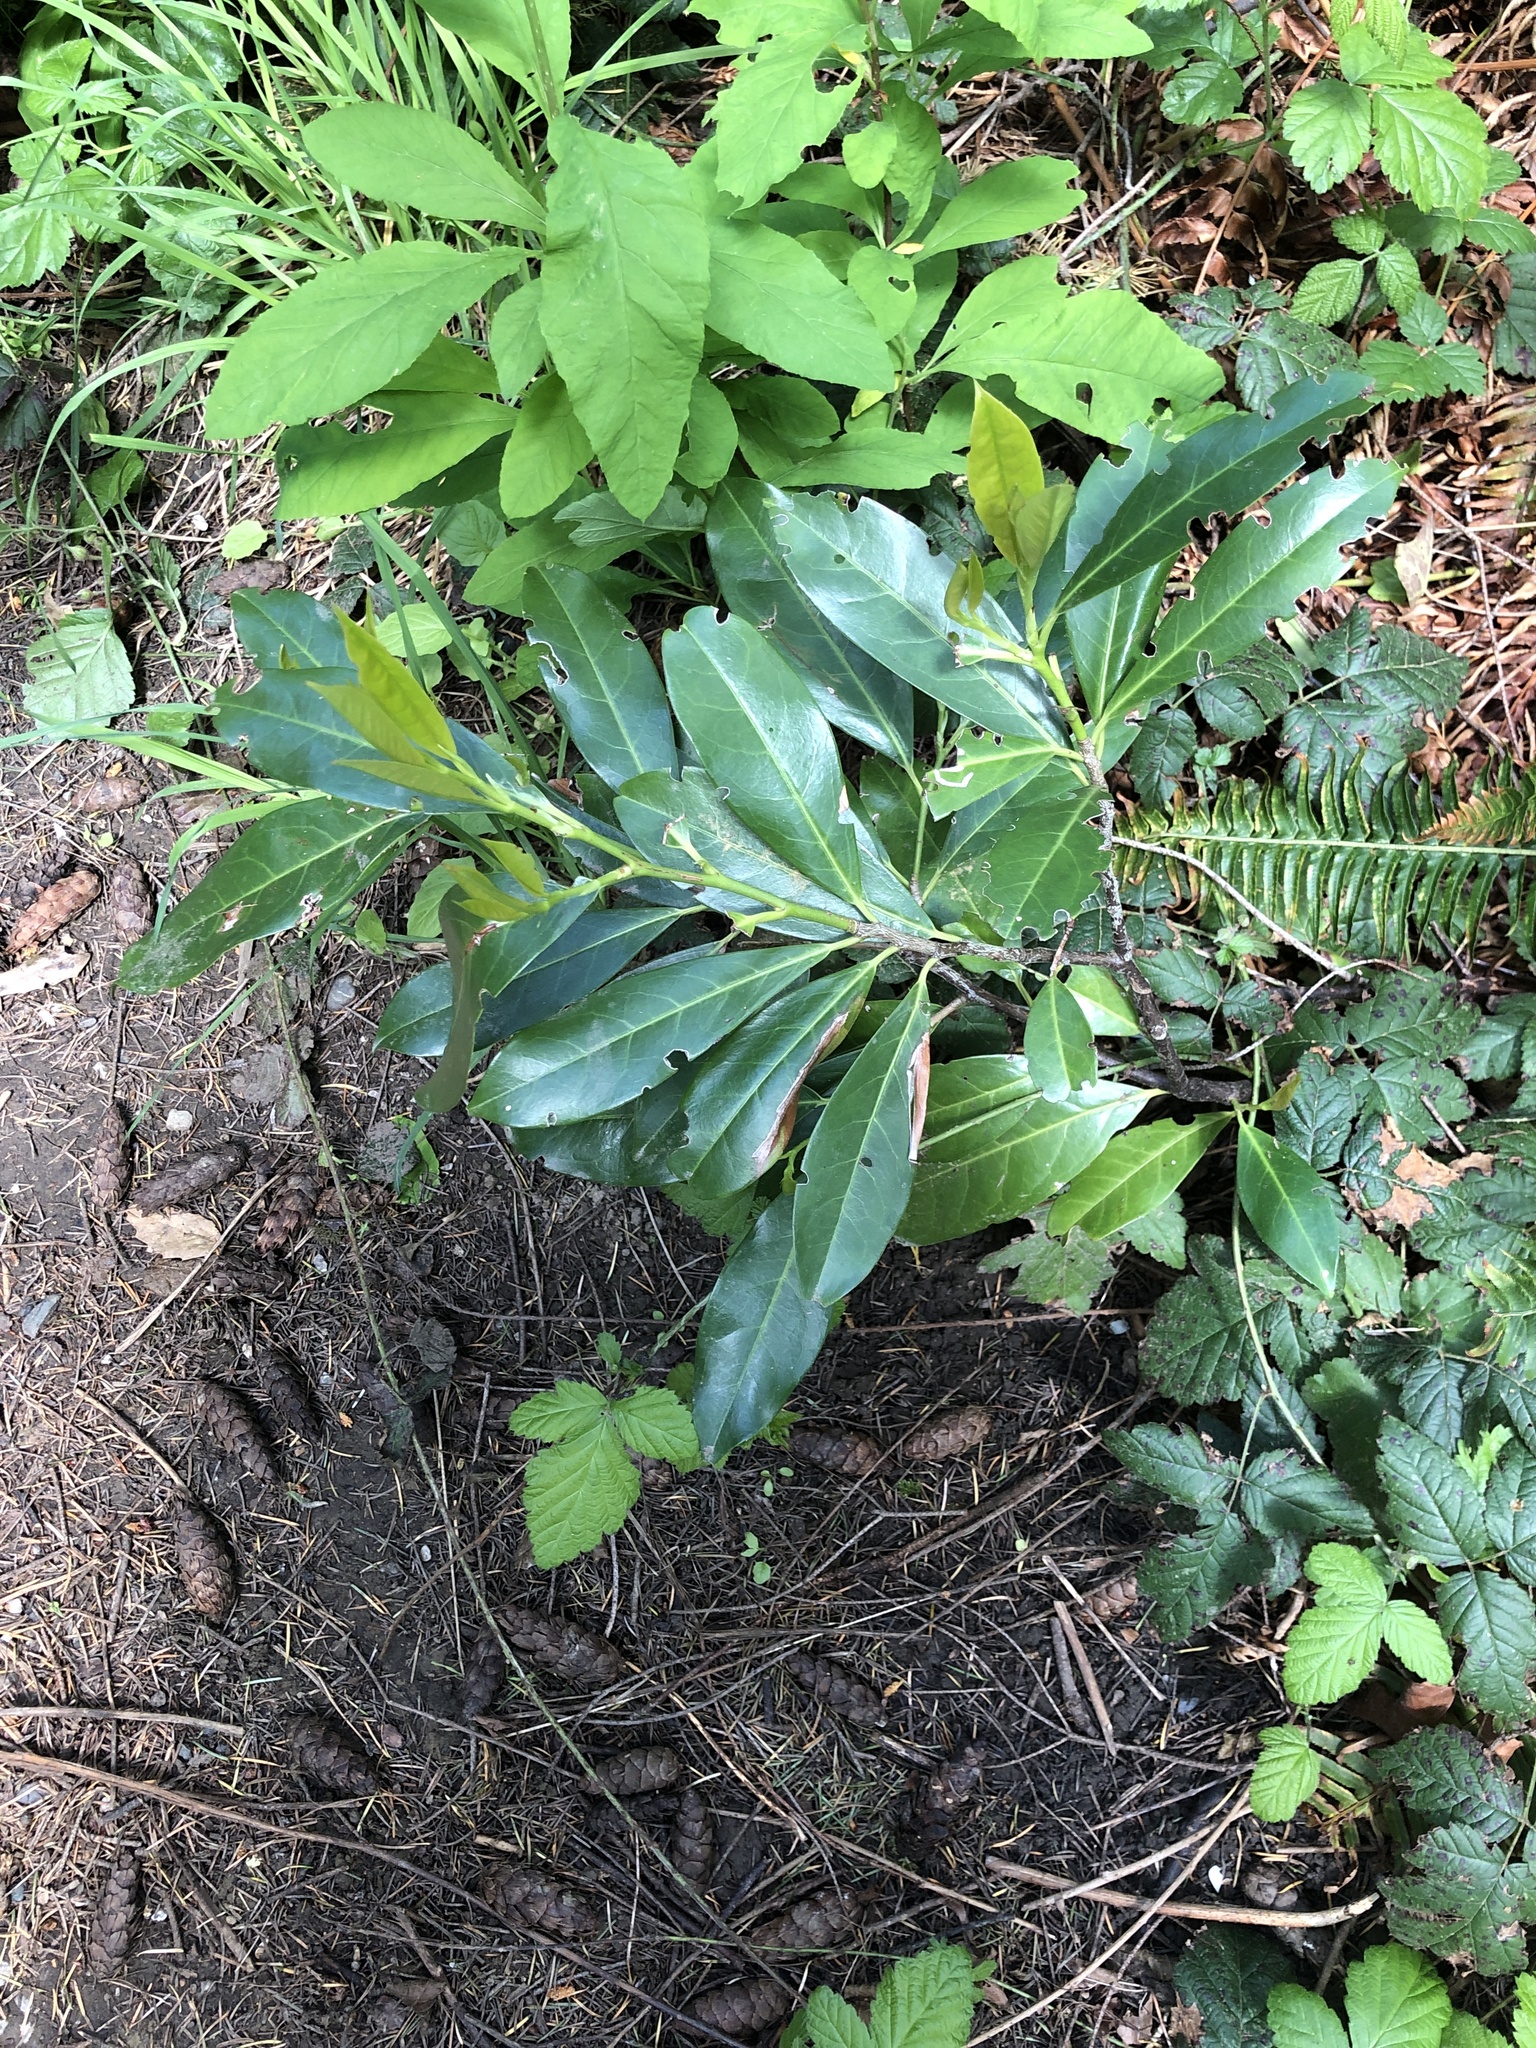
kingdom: Plantae
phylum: Tracheophyta
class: Magnoliopsida
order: Rosales
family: Rosaceae
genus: Prunus
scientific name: Prunus laurocerasus
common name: Cherry laurel
